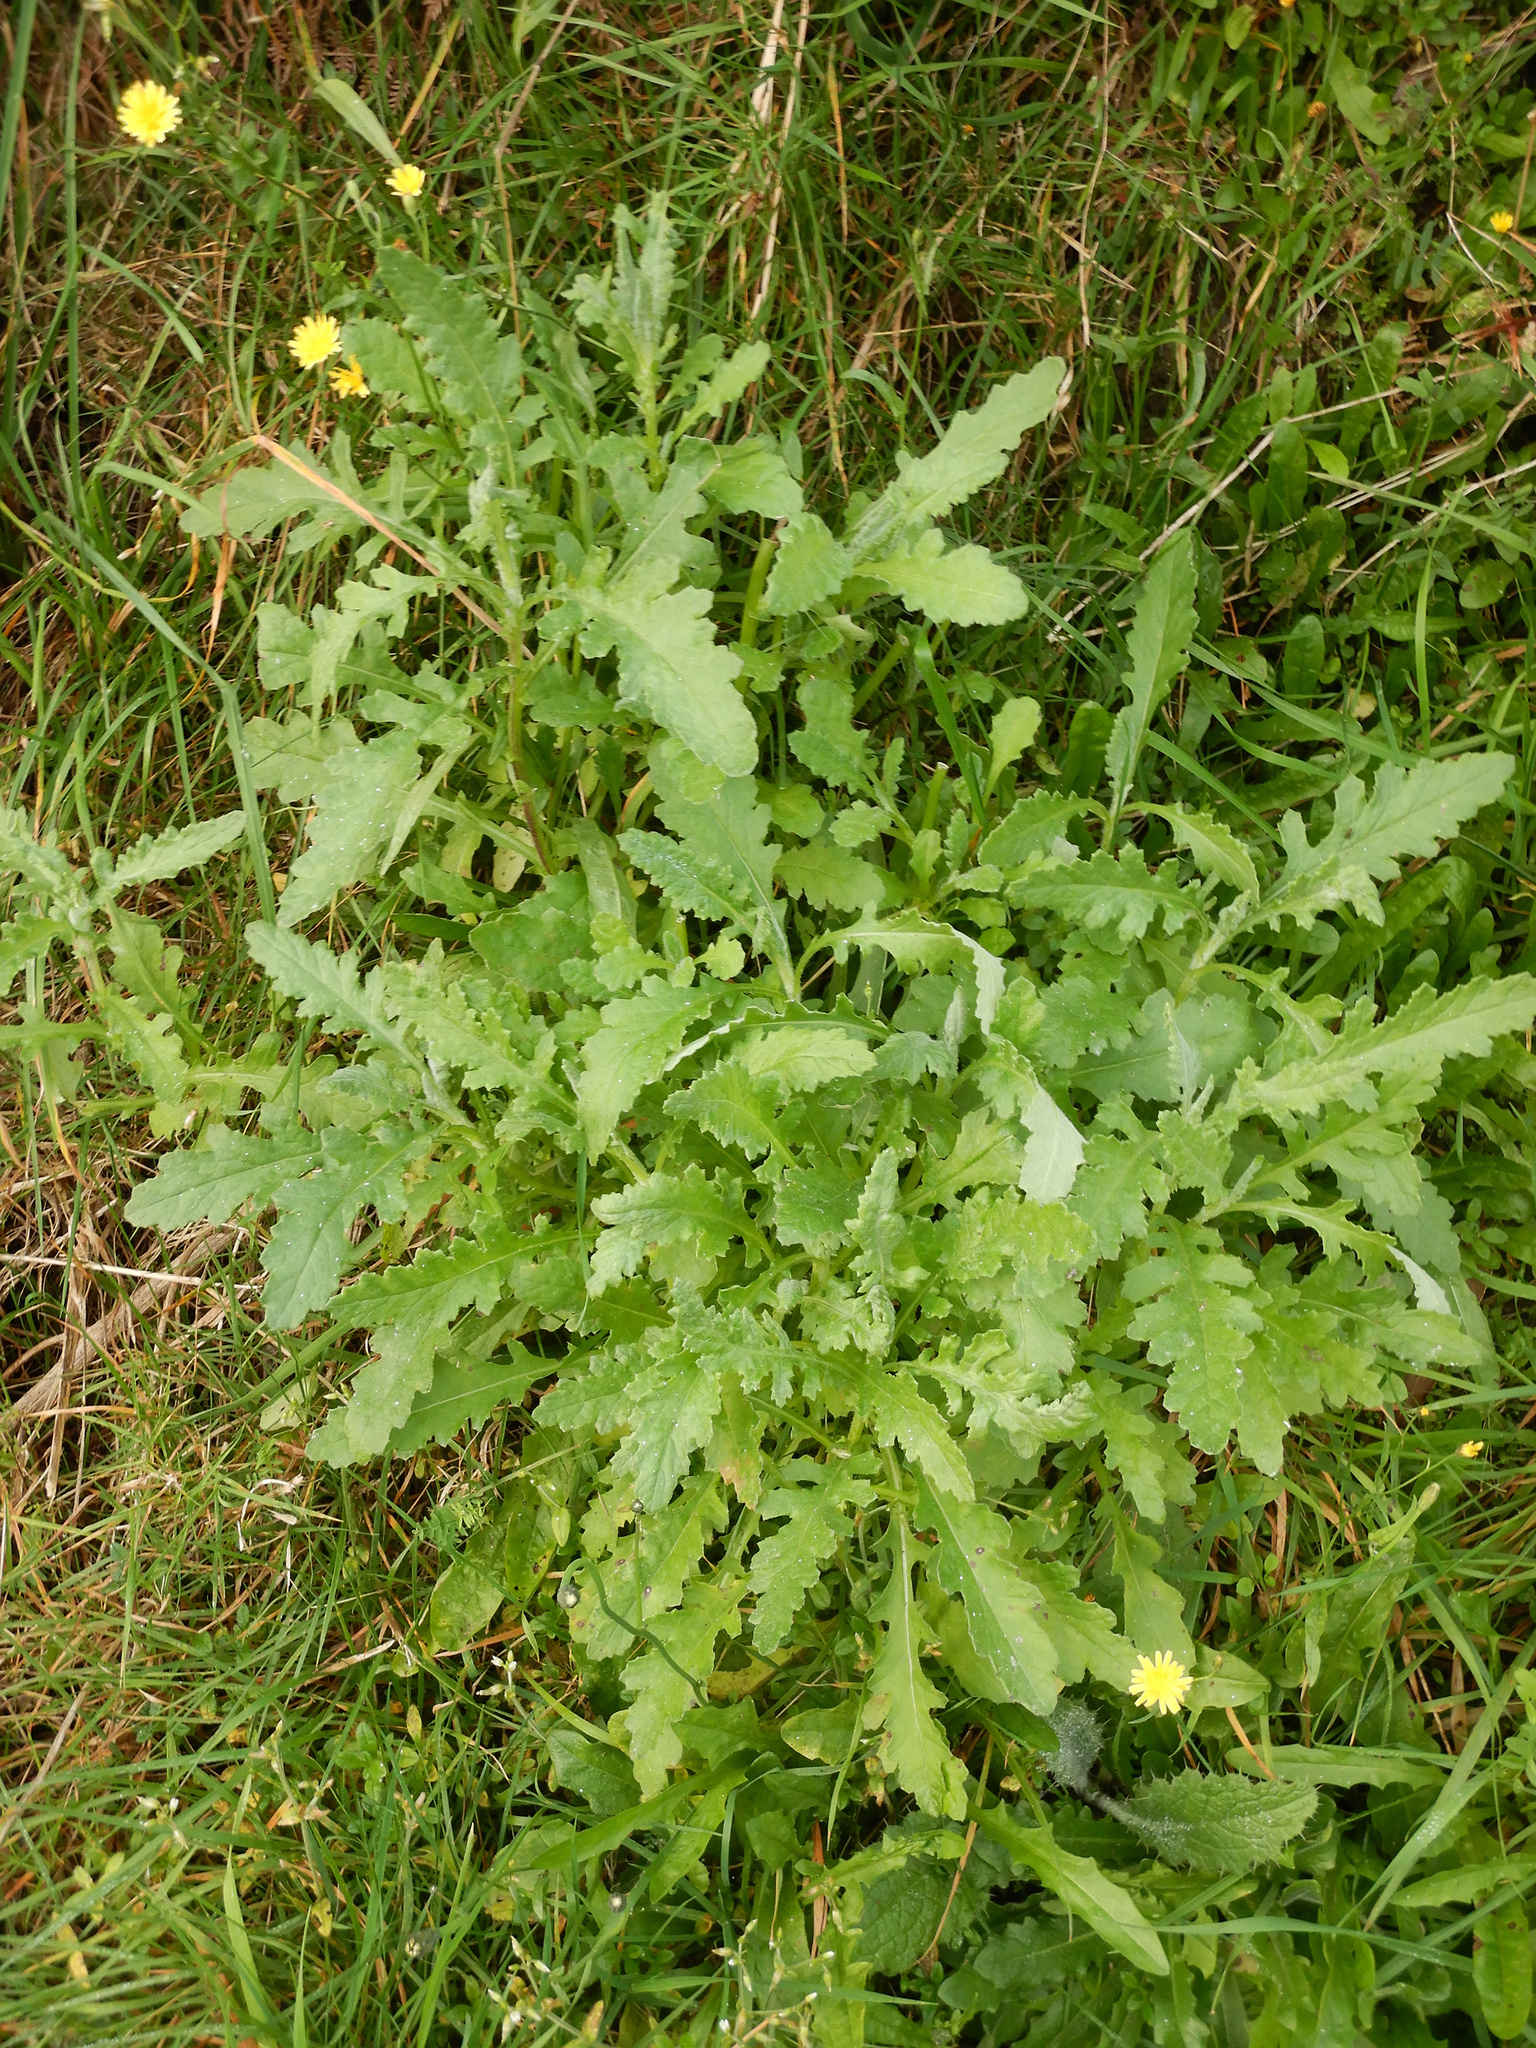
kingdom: Plantae
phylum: Tracheophyta
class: Magnoliopsida
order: Asterales
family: Asteraceae
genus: Senecio
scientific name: Senecio glomeratus
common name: Cutleaf burnweed
